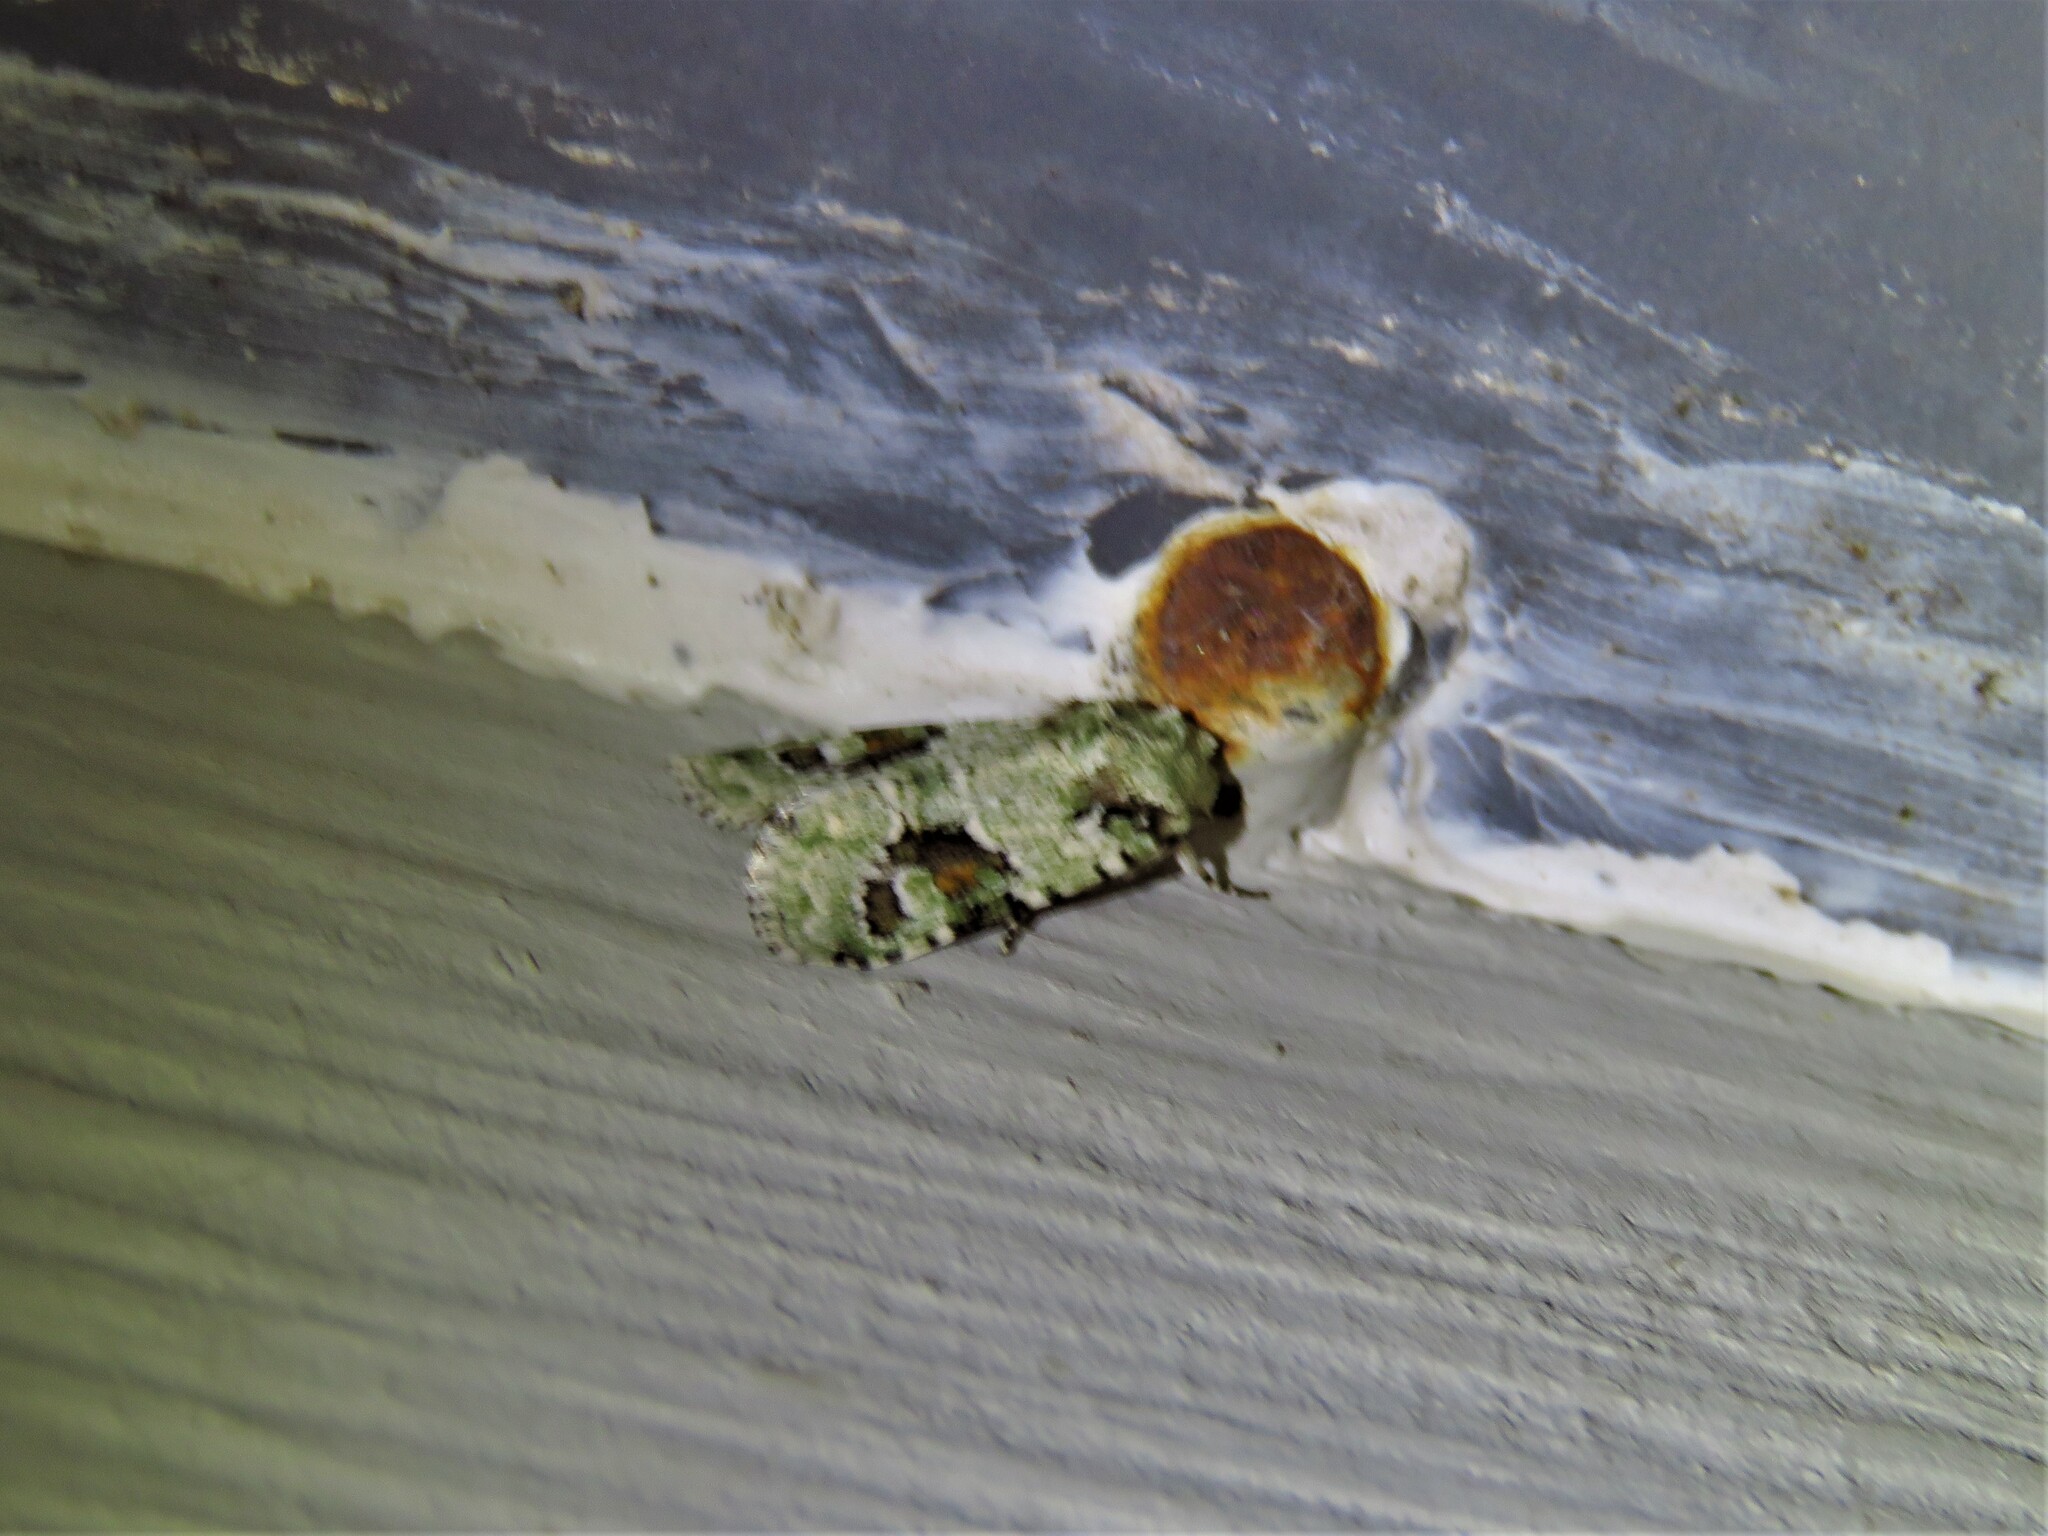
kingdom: Animalia
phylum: Arthropoda
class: Insecta
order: Lepidoptera
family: Noctuidae
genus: Lacinipolia
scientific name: Lacinipolia laudabilis
